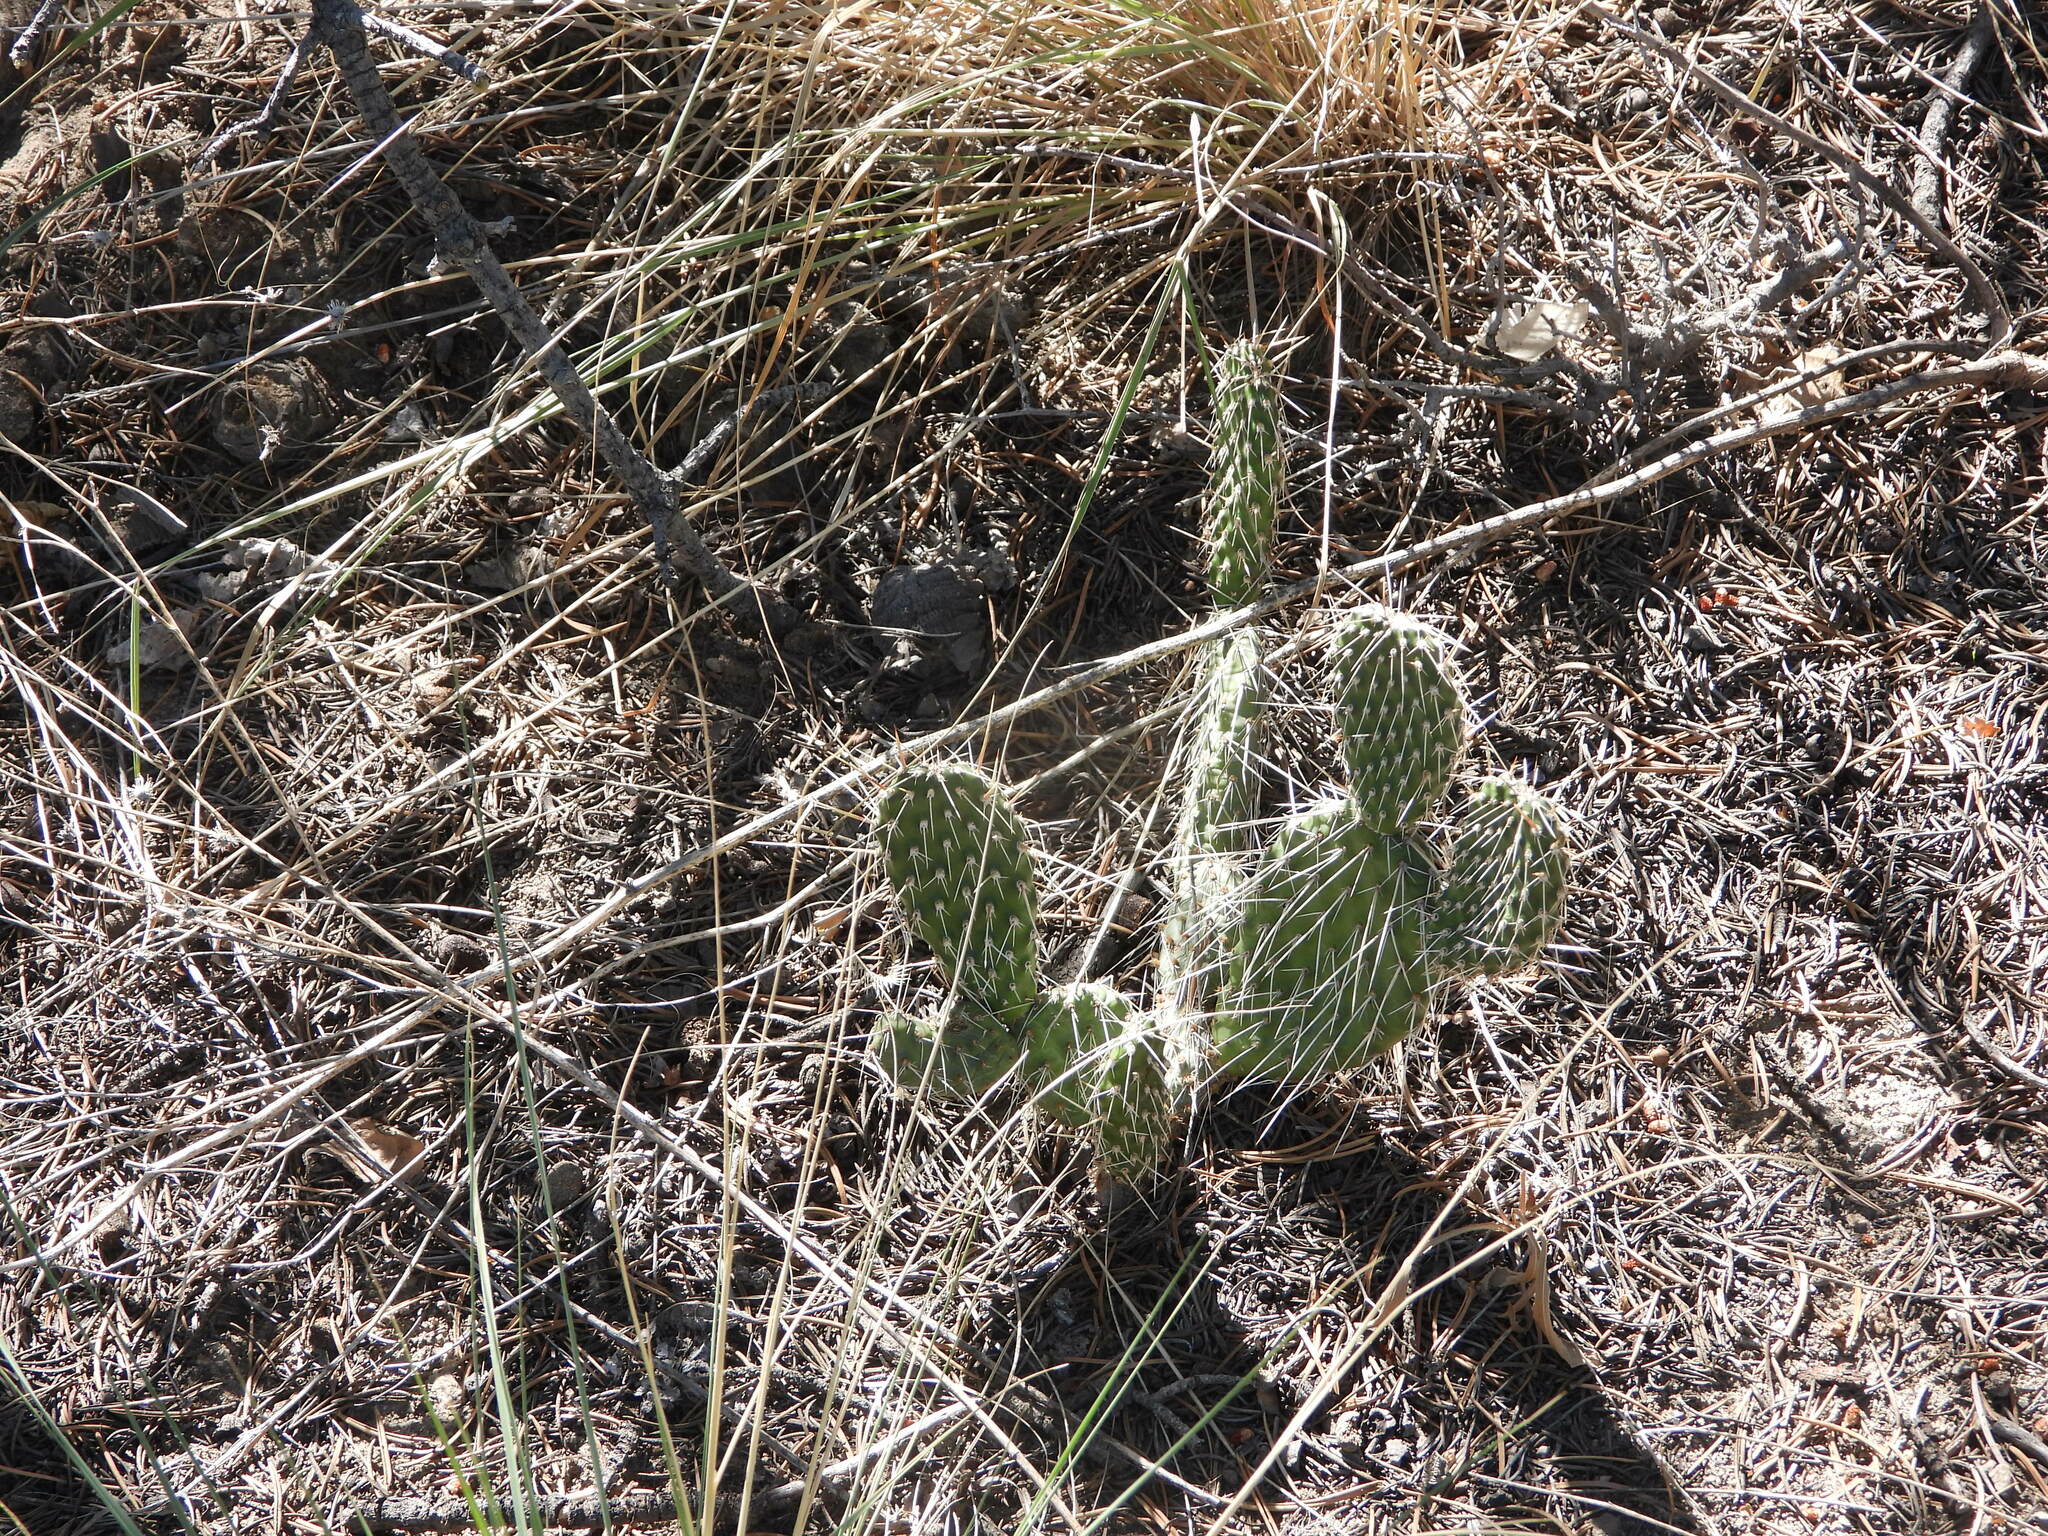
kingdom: Plantae
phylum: Tracheophyta
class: Magnoliopsida
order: Caryophyllales
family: Cactaceae
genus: Opuntia
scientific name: Opuntia polyacantha
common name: Plains prickly-pear
